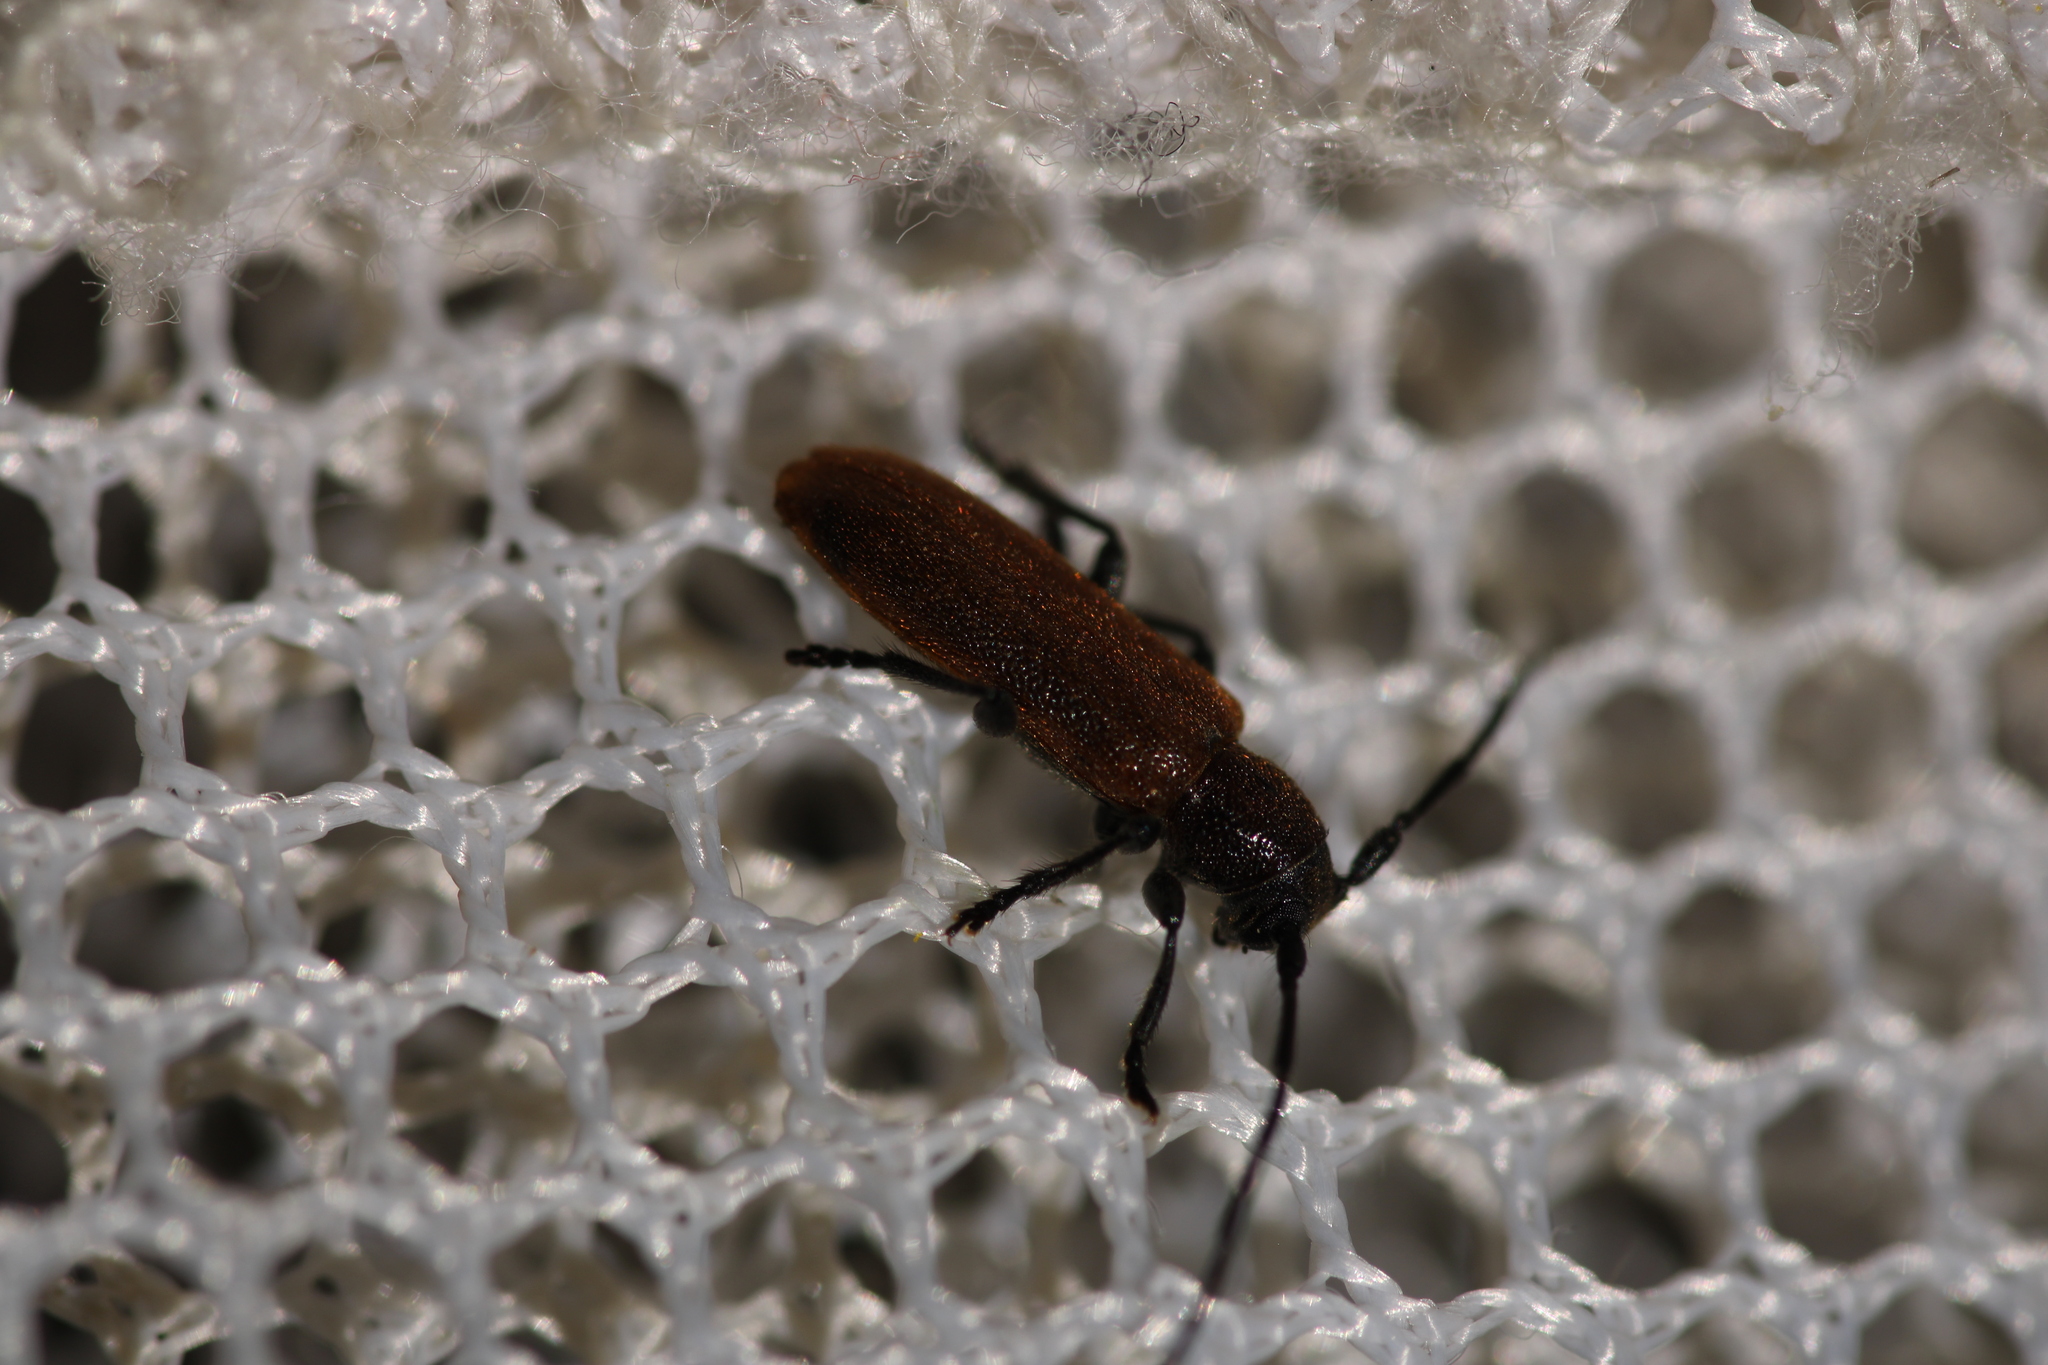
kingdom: Animalia
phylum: Arthropoda
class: Insecta
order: Coleoptera
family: Cerambycidae
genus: Anaesthetis
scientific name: Anaesthetis testacea
